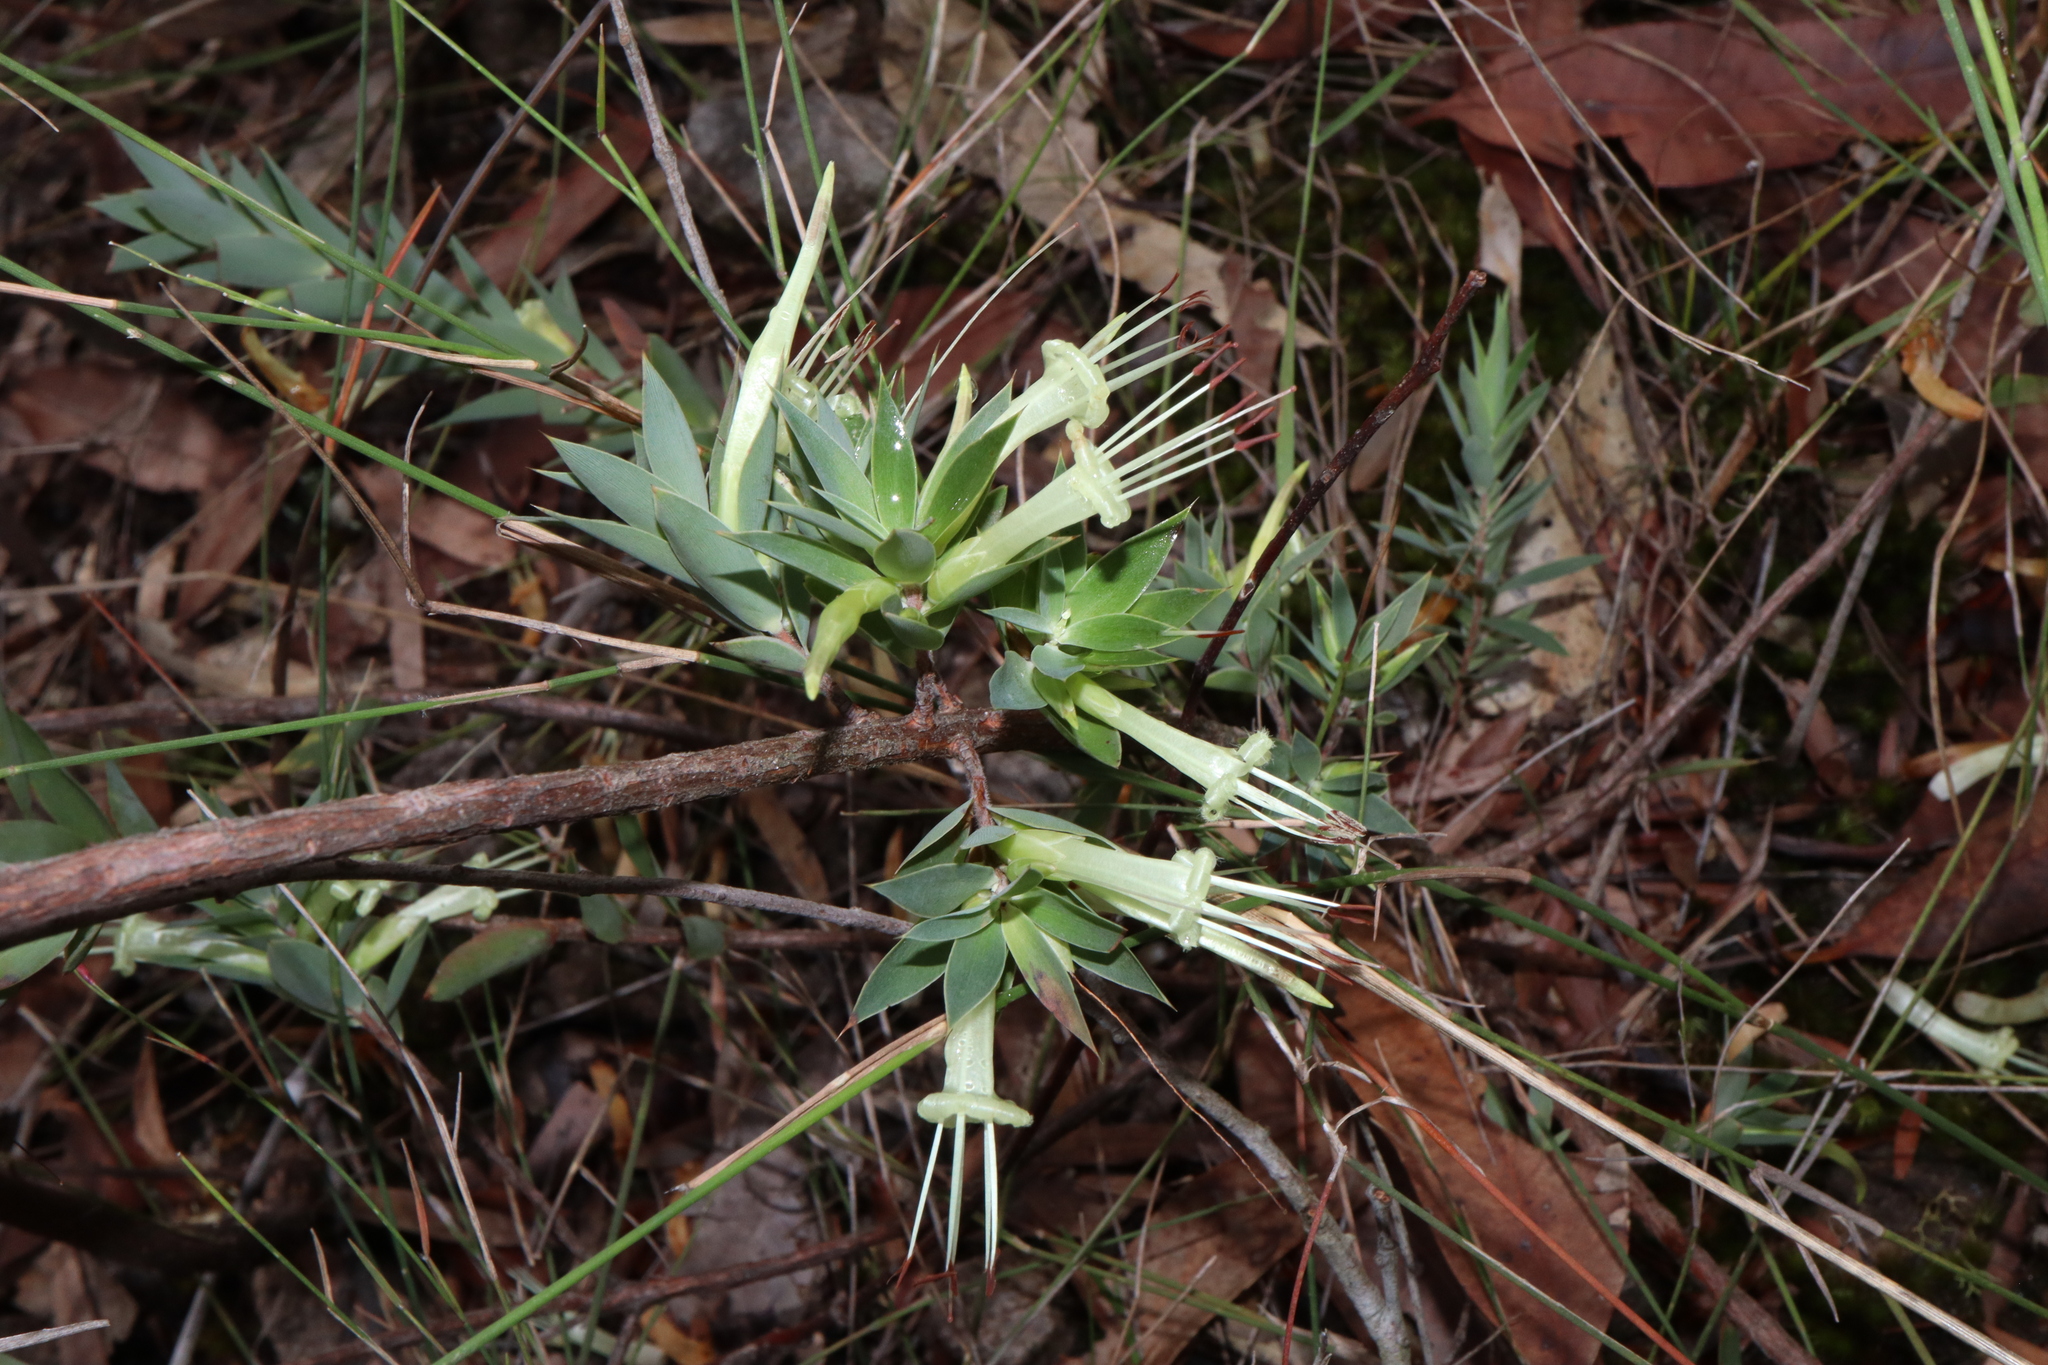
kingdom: Plantae
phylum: Tracheophyta
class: Magnoliopsida
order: Ericales
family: Ericaceae
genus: Styphelia
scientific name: Styphelia laeta
